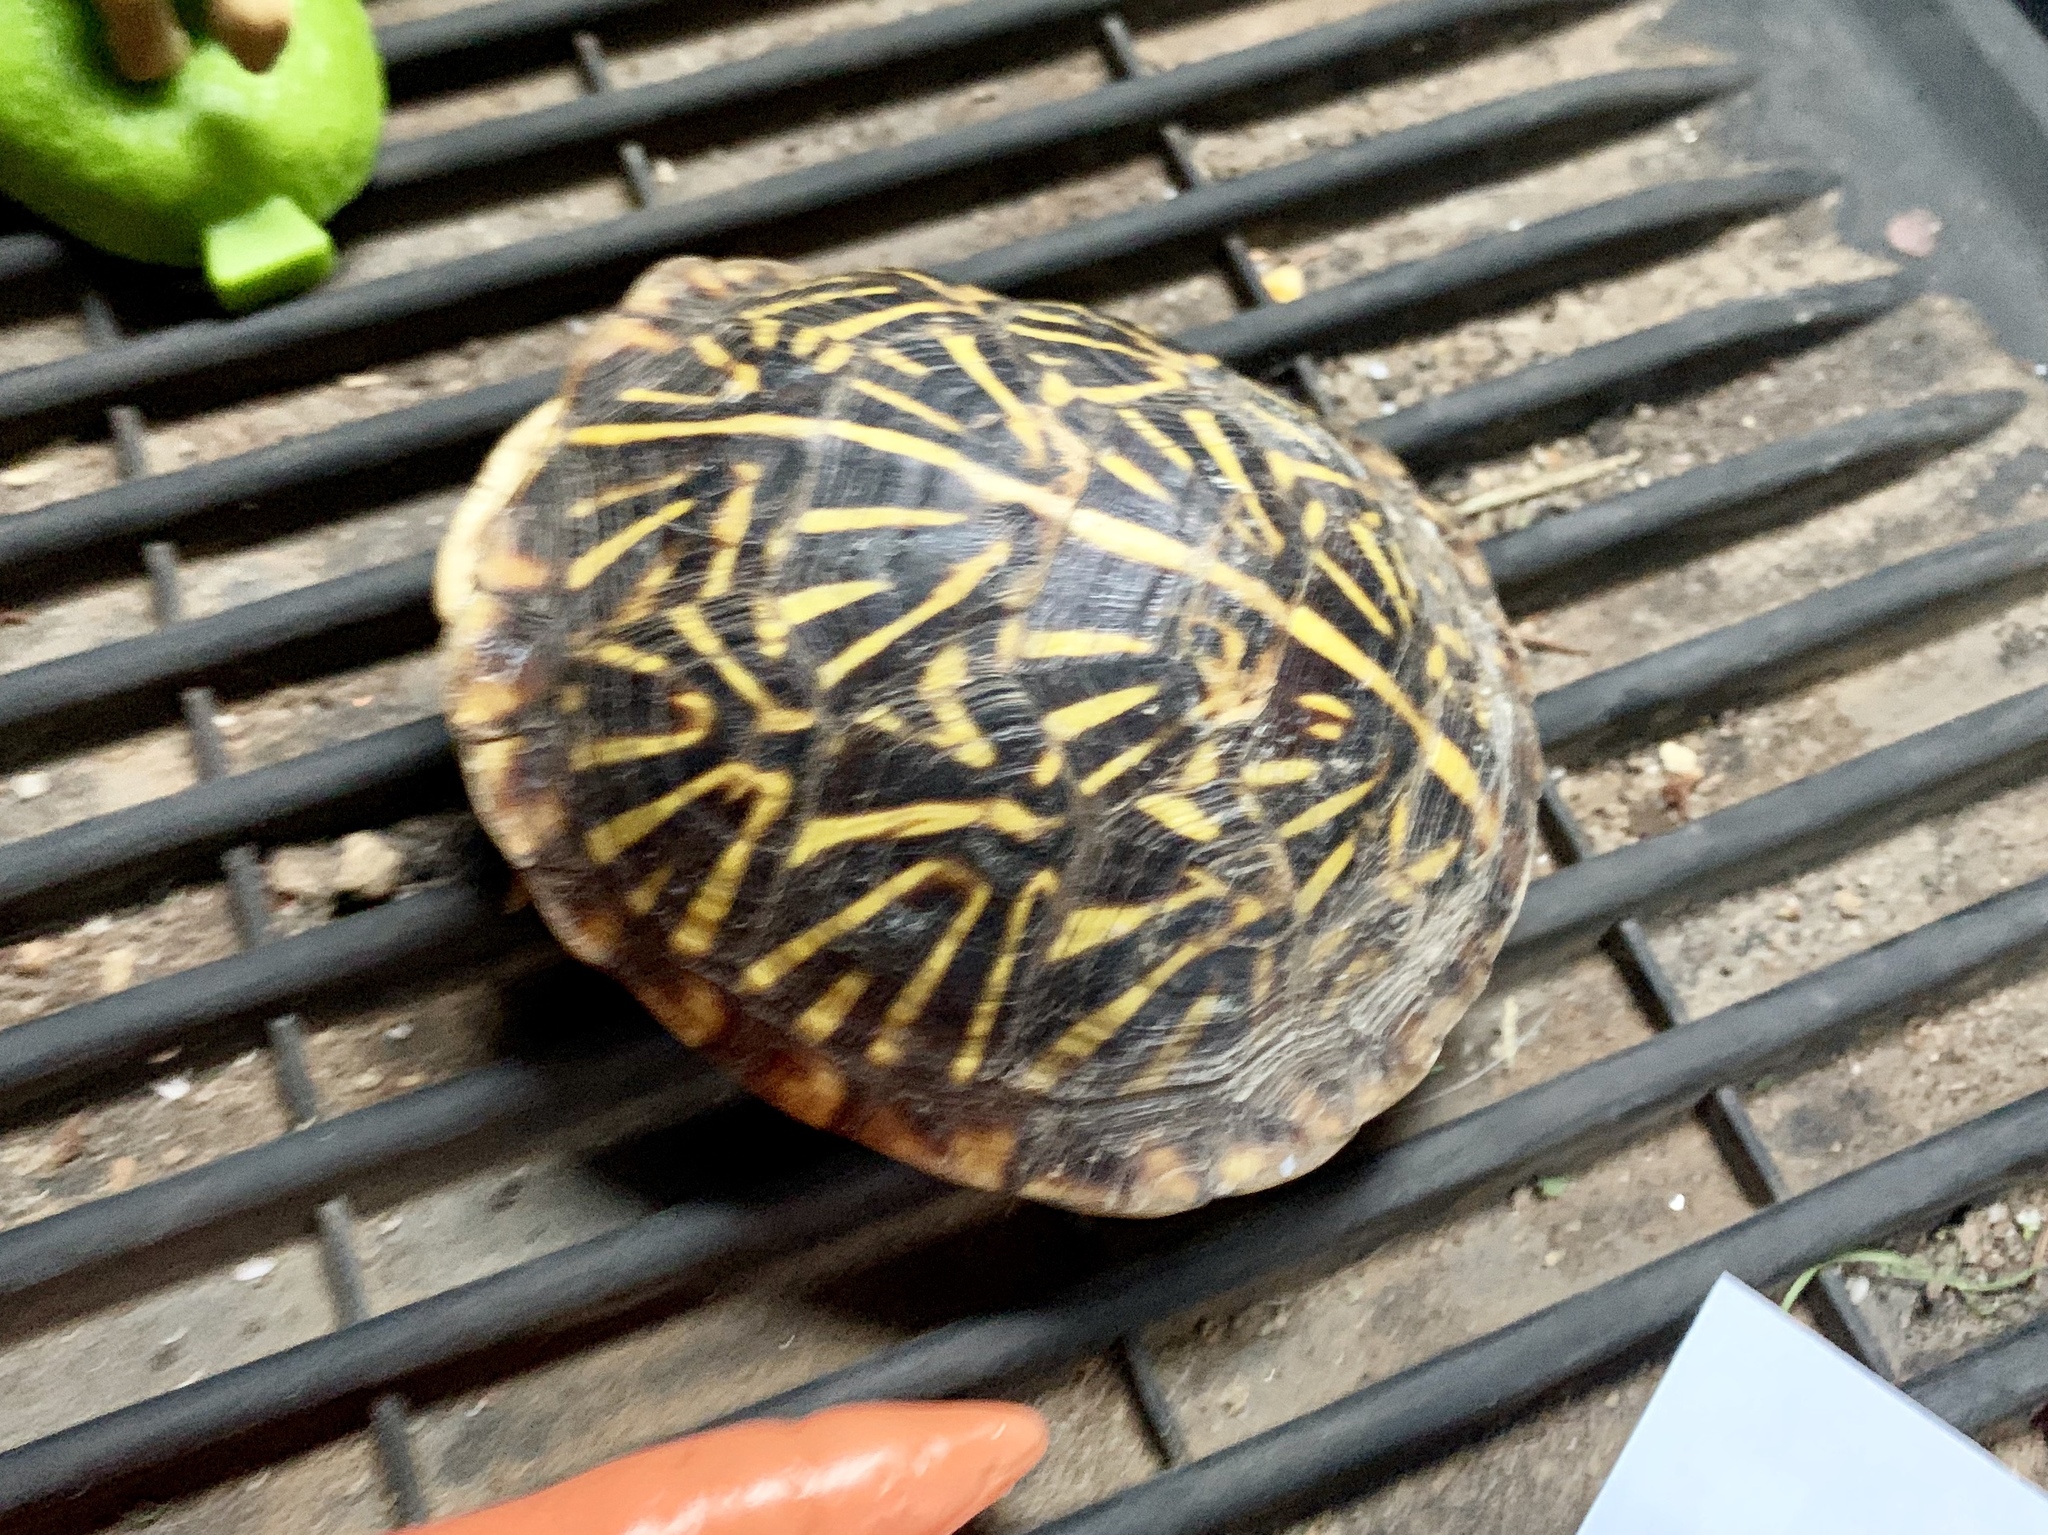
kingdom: Animalia
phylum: Chordata
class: Testudines
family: Emydidae
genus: Terrapene
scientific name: Terrapene ornata
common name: Western box turtle
